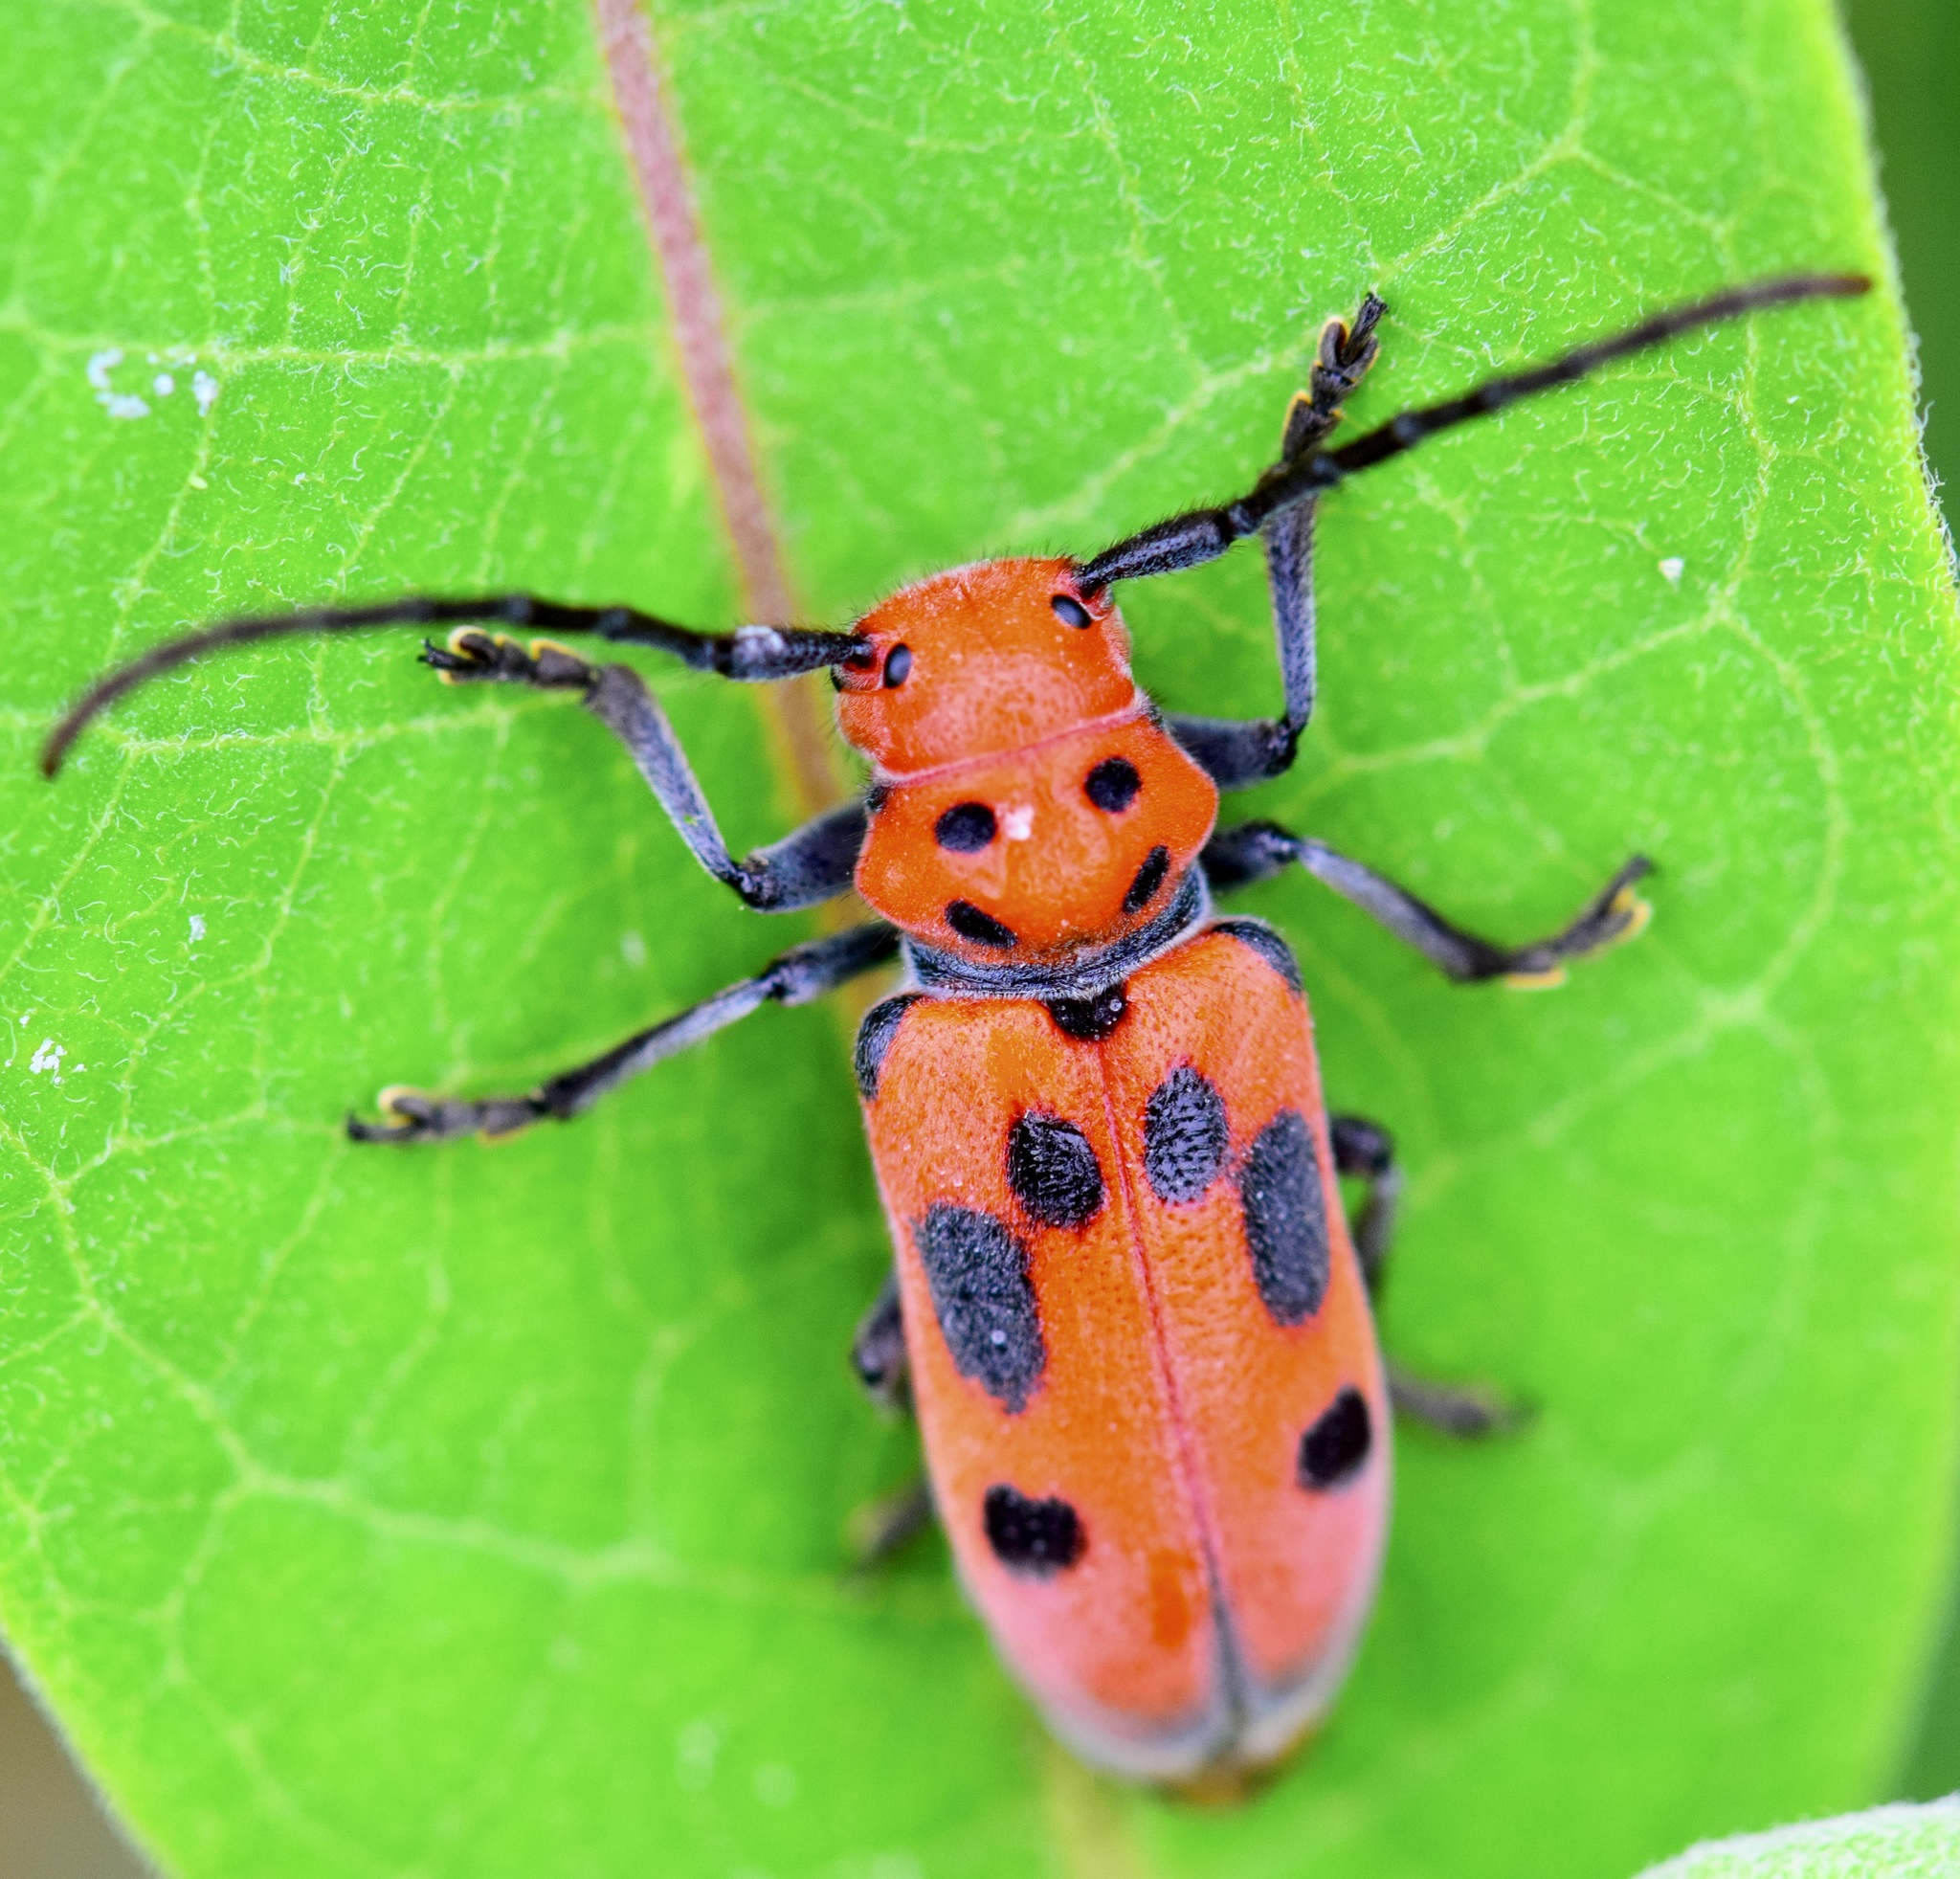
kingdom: Animalia
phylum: Arthropoda
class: Insecta
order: Coleoptera
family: Cerambycidae
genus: Tetraopes
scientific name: Tetraopes tetrophthalmus
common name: Red milkweed beetle
